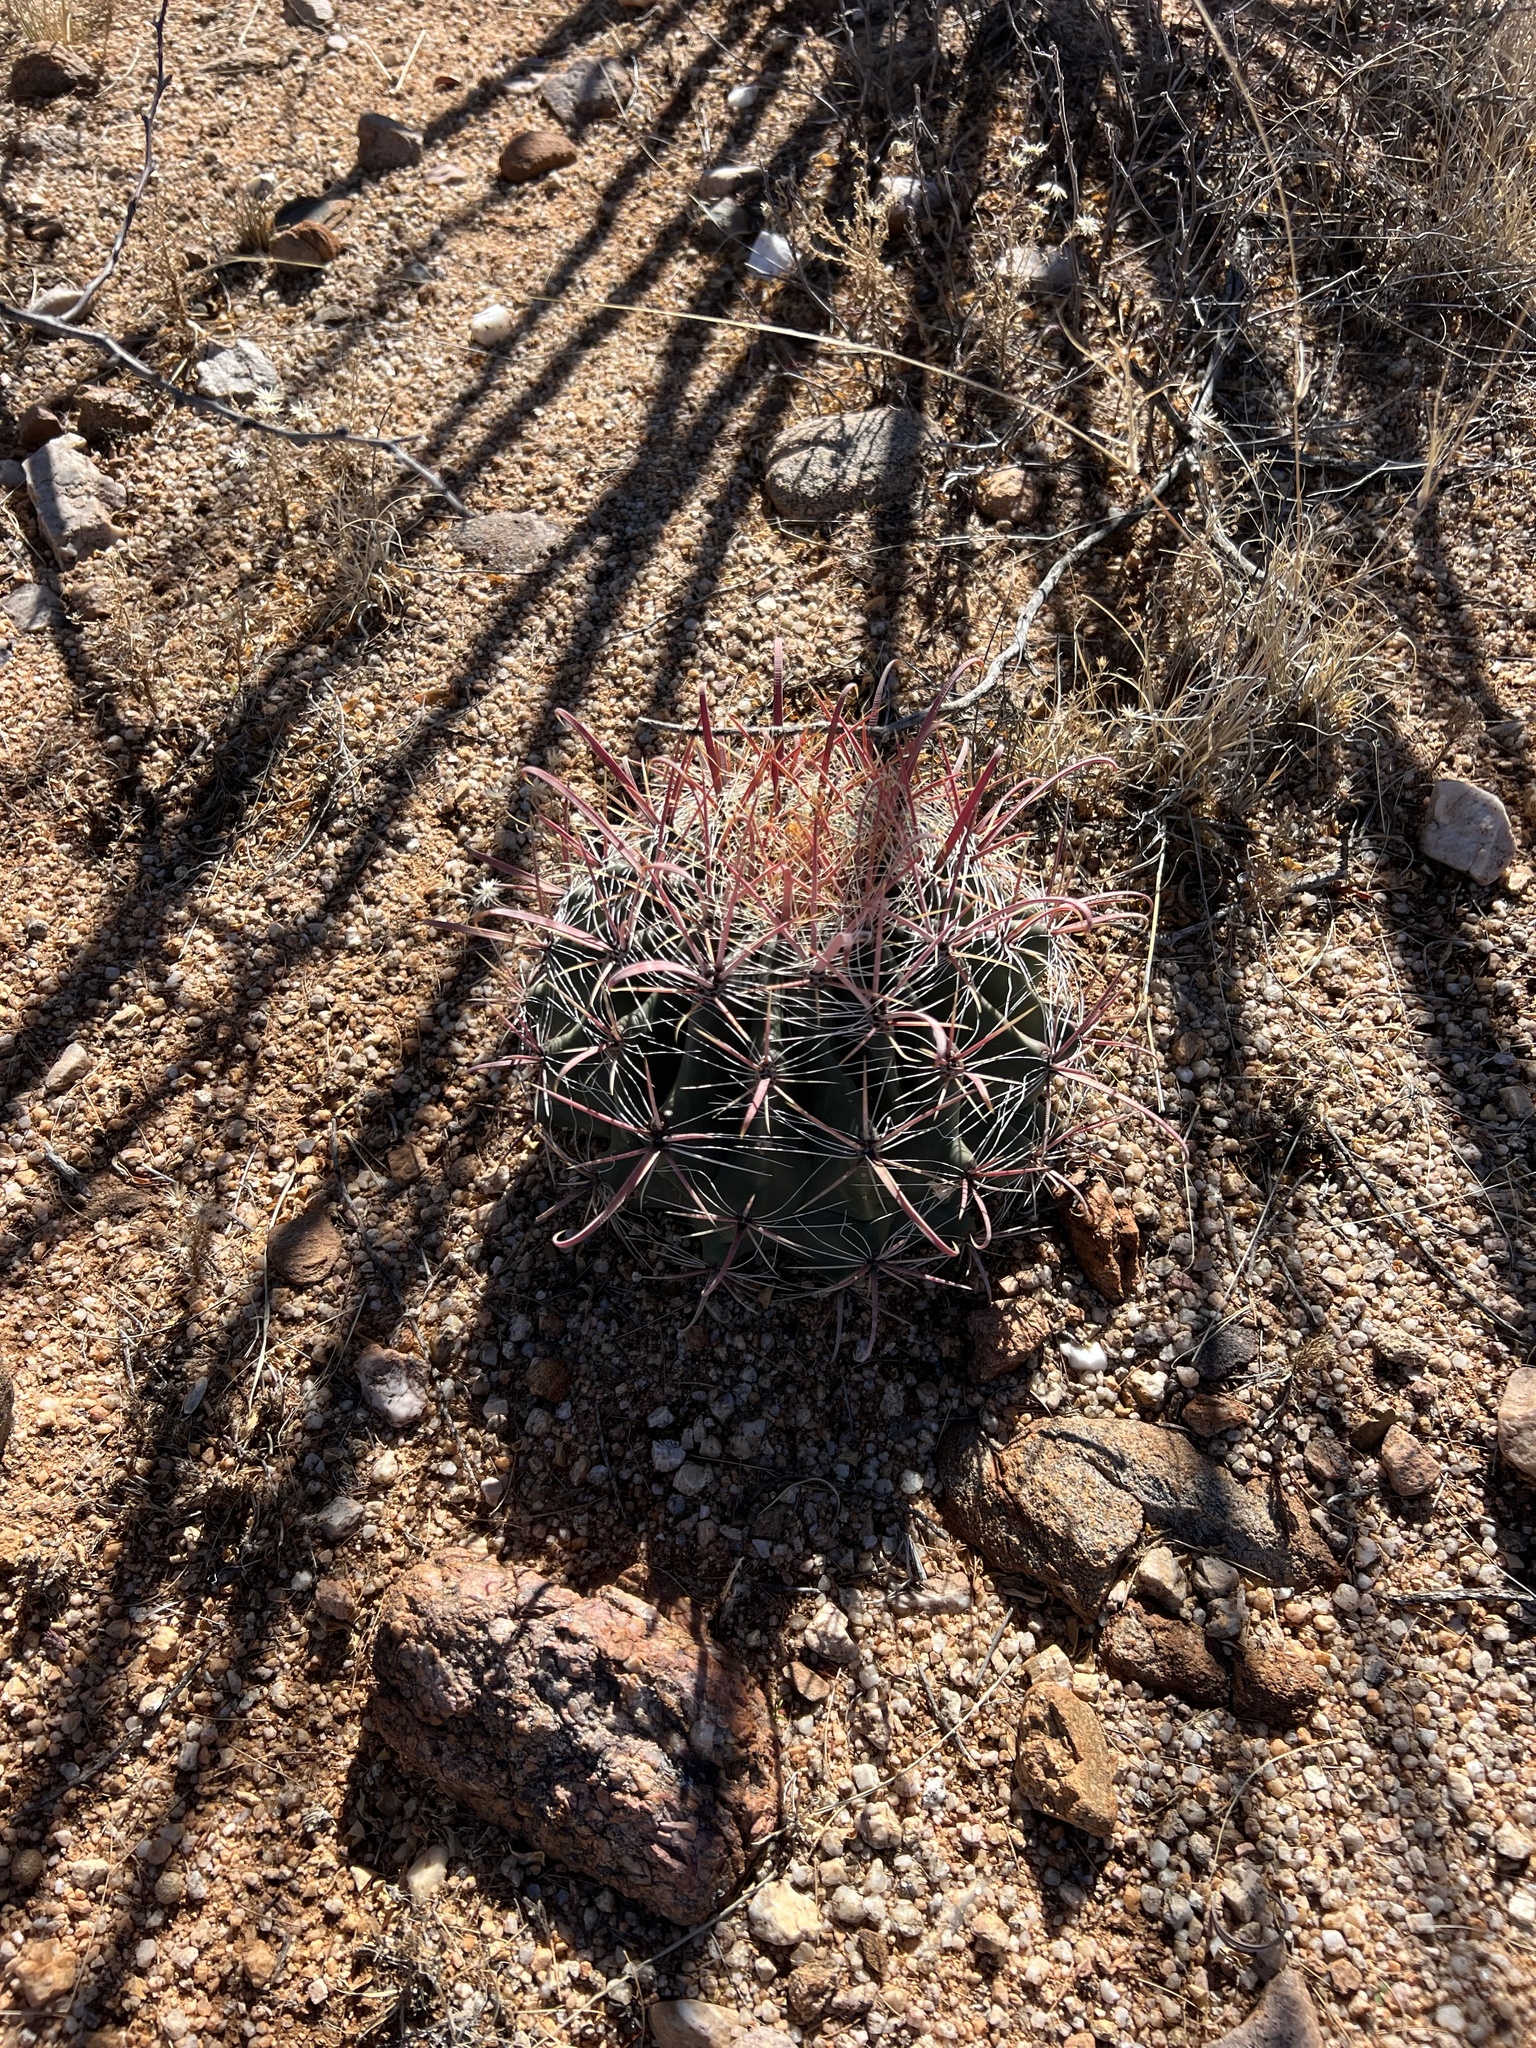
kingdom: Plantae
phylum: Tracheophyta
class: Magnoliopsida
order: Caryophyllales
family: Cactaceae
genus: Ferocactus
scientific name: Ferocactus wislizeni
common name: Candy barrel cactus
